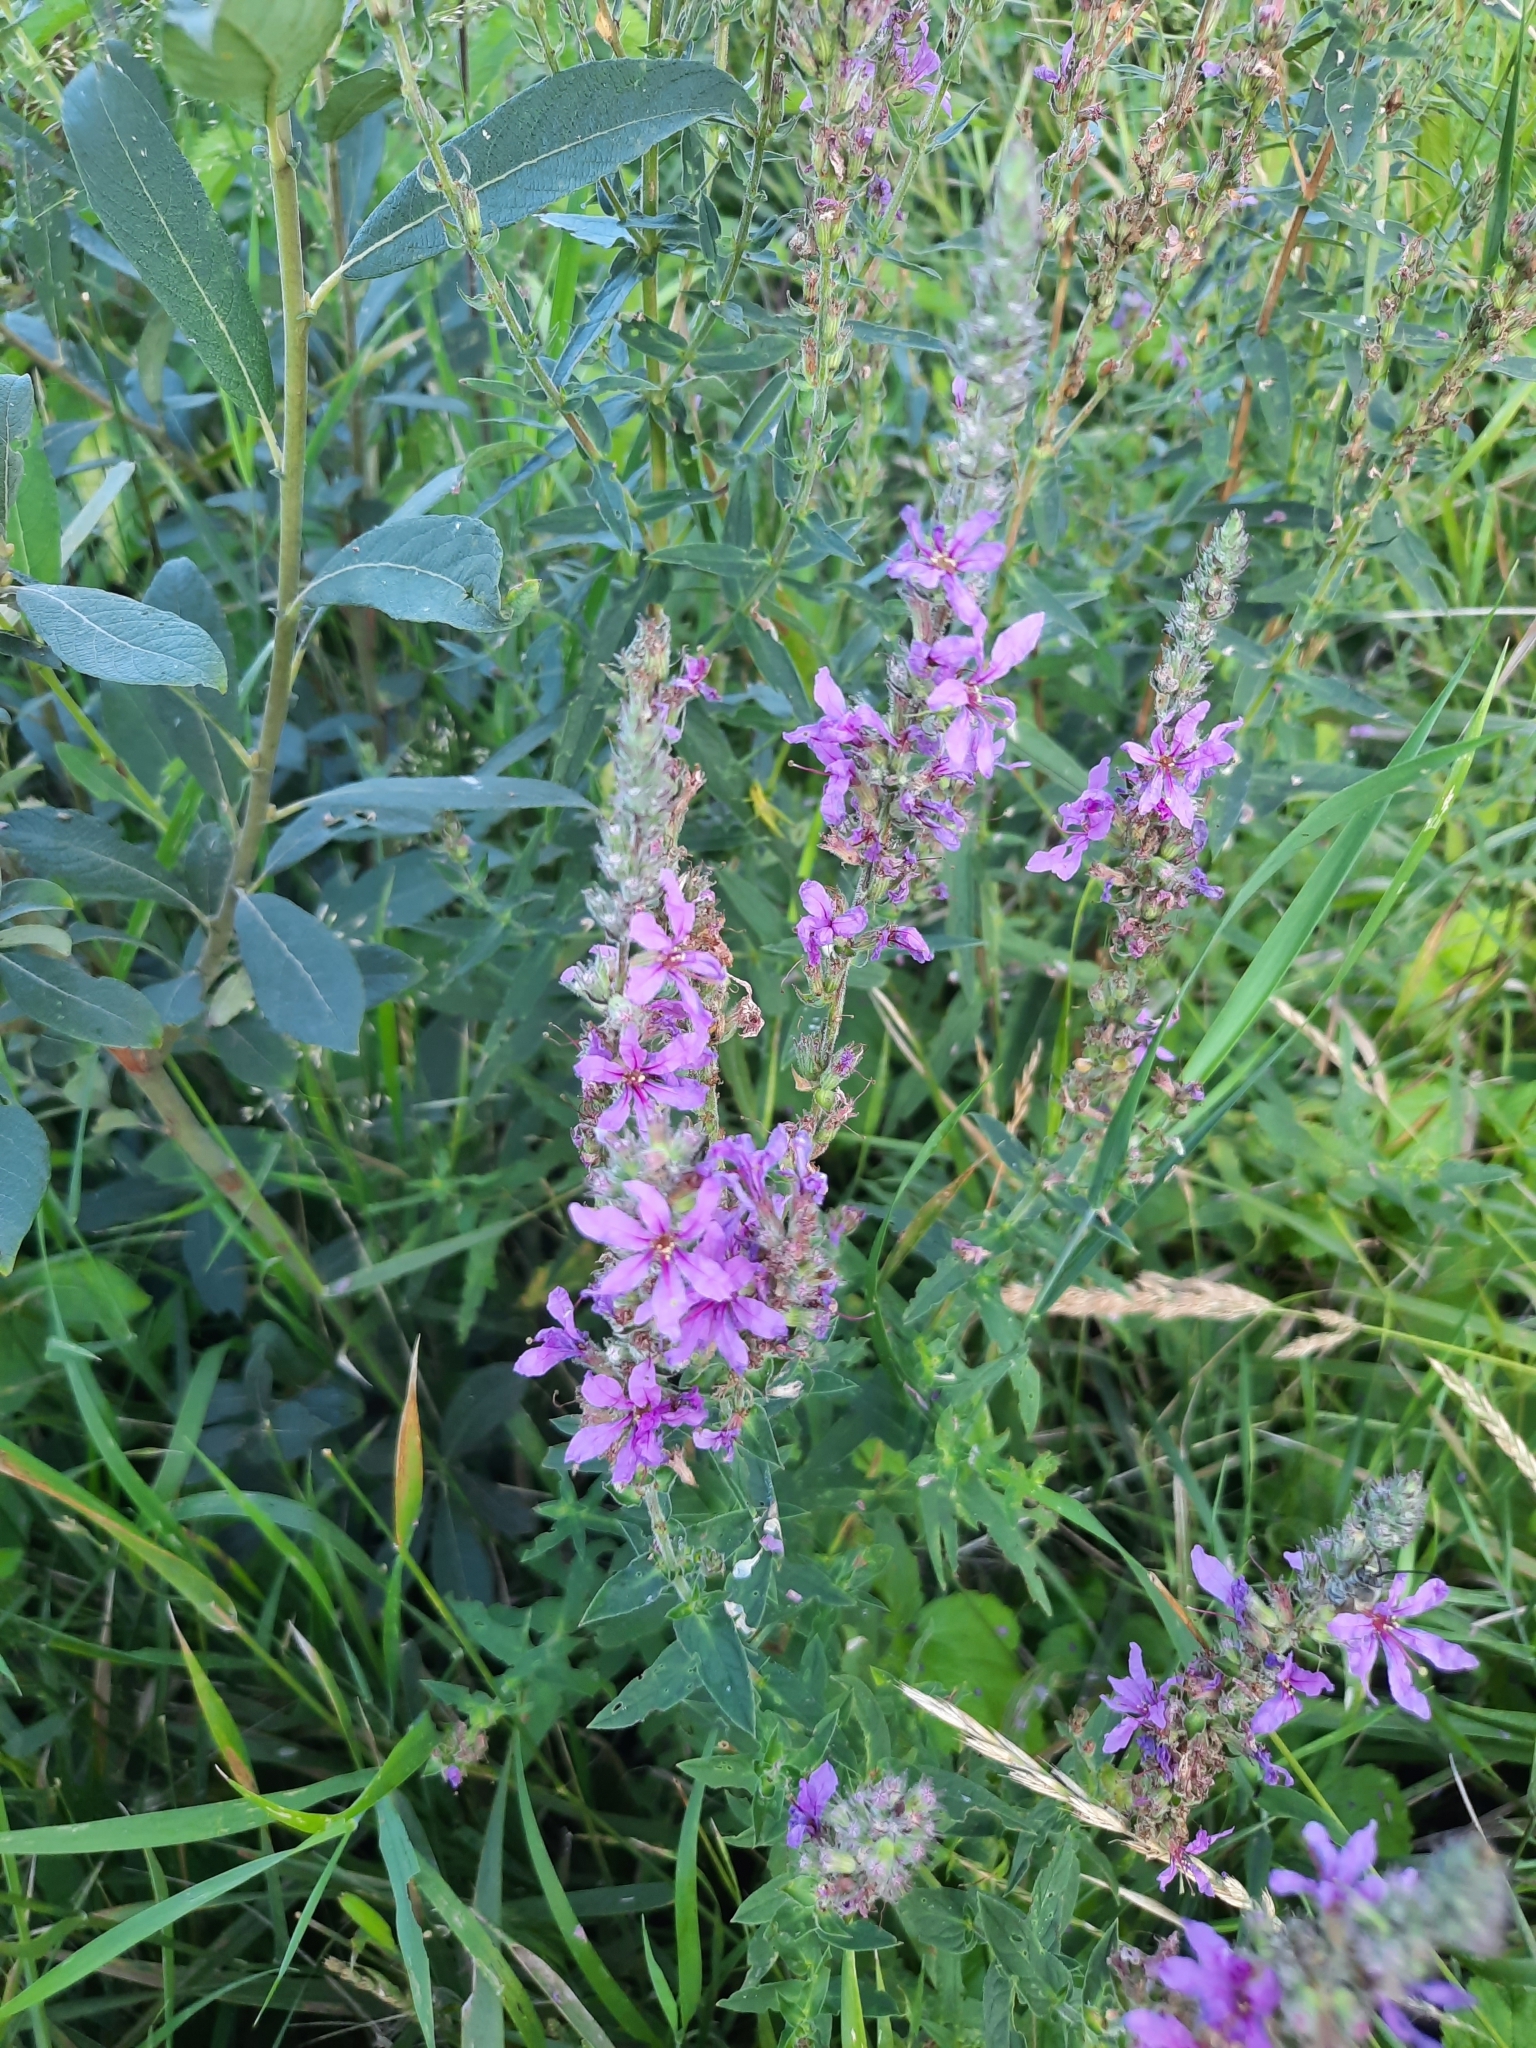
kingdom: Plantae
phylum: Tracheophyta
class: Magnoliopsida
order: Myrtales
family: Lythraceae
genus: Lythrum
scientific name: Lythrum salicaria
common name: Purple loosestrife
